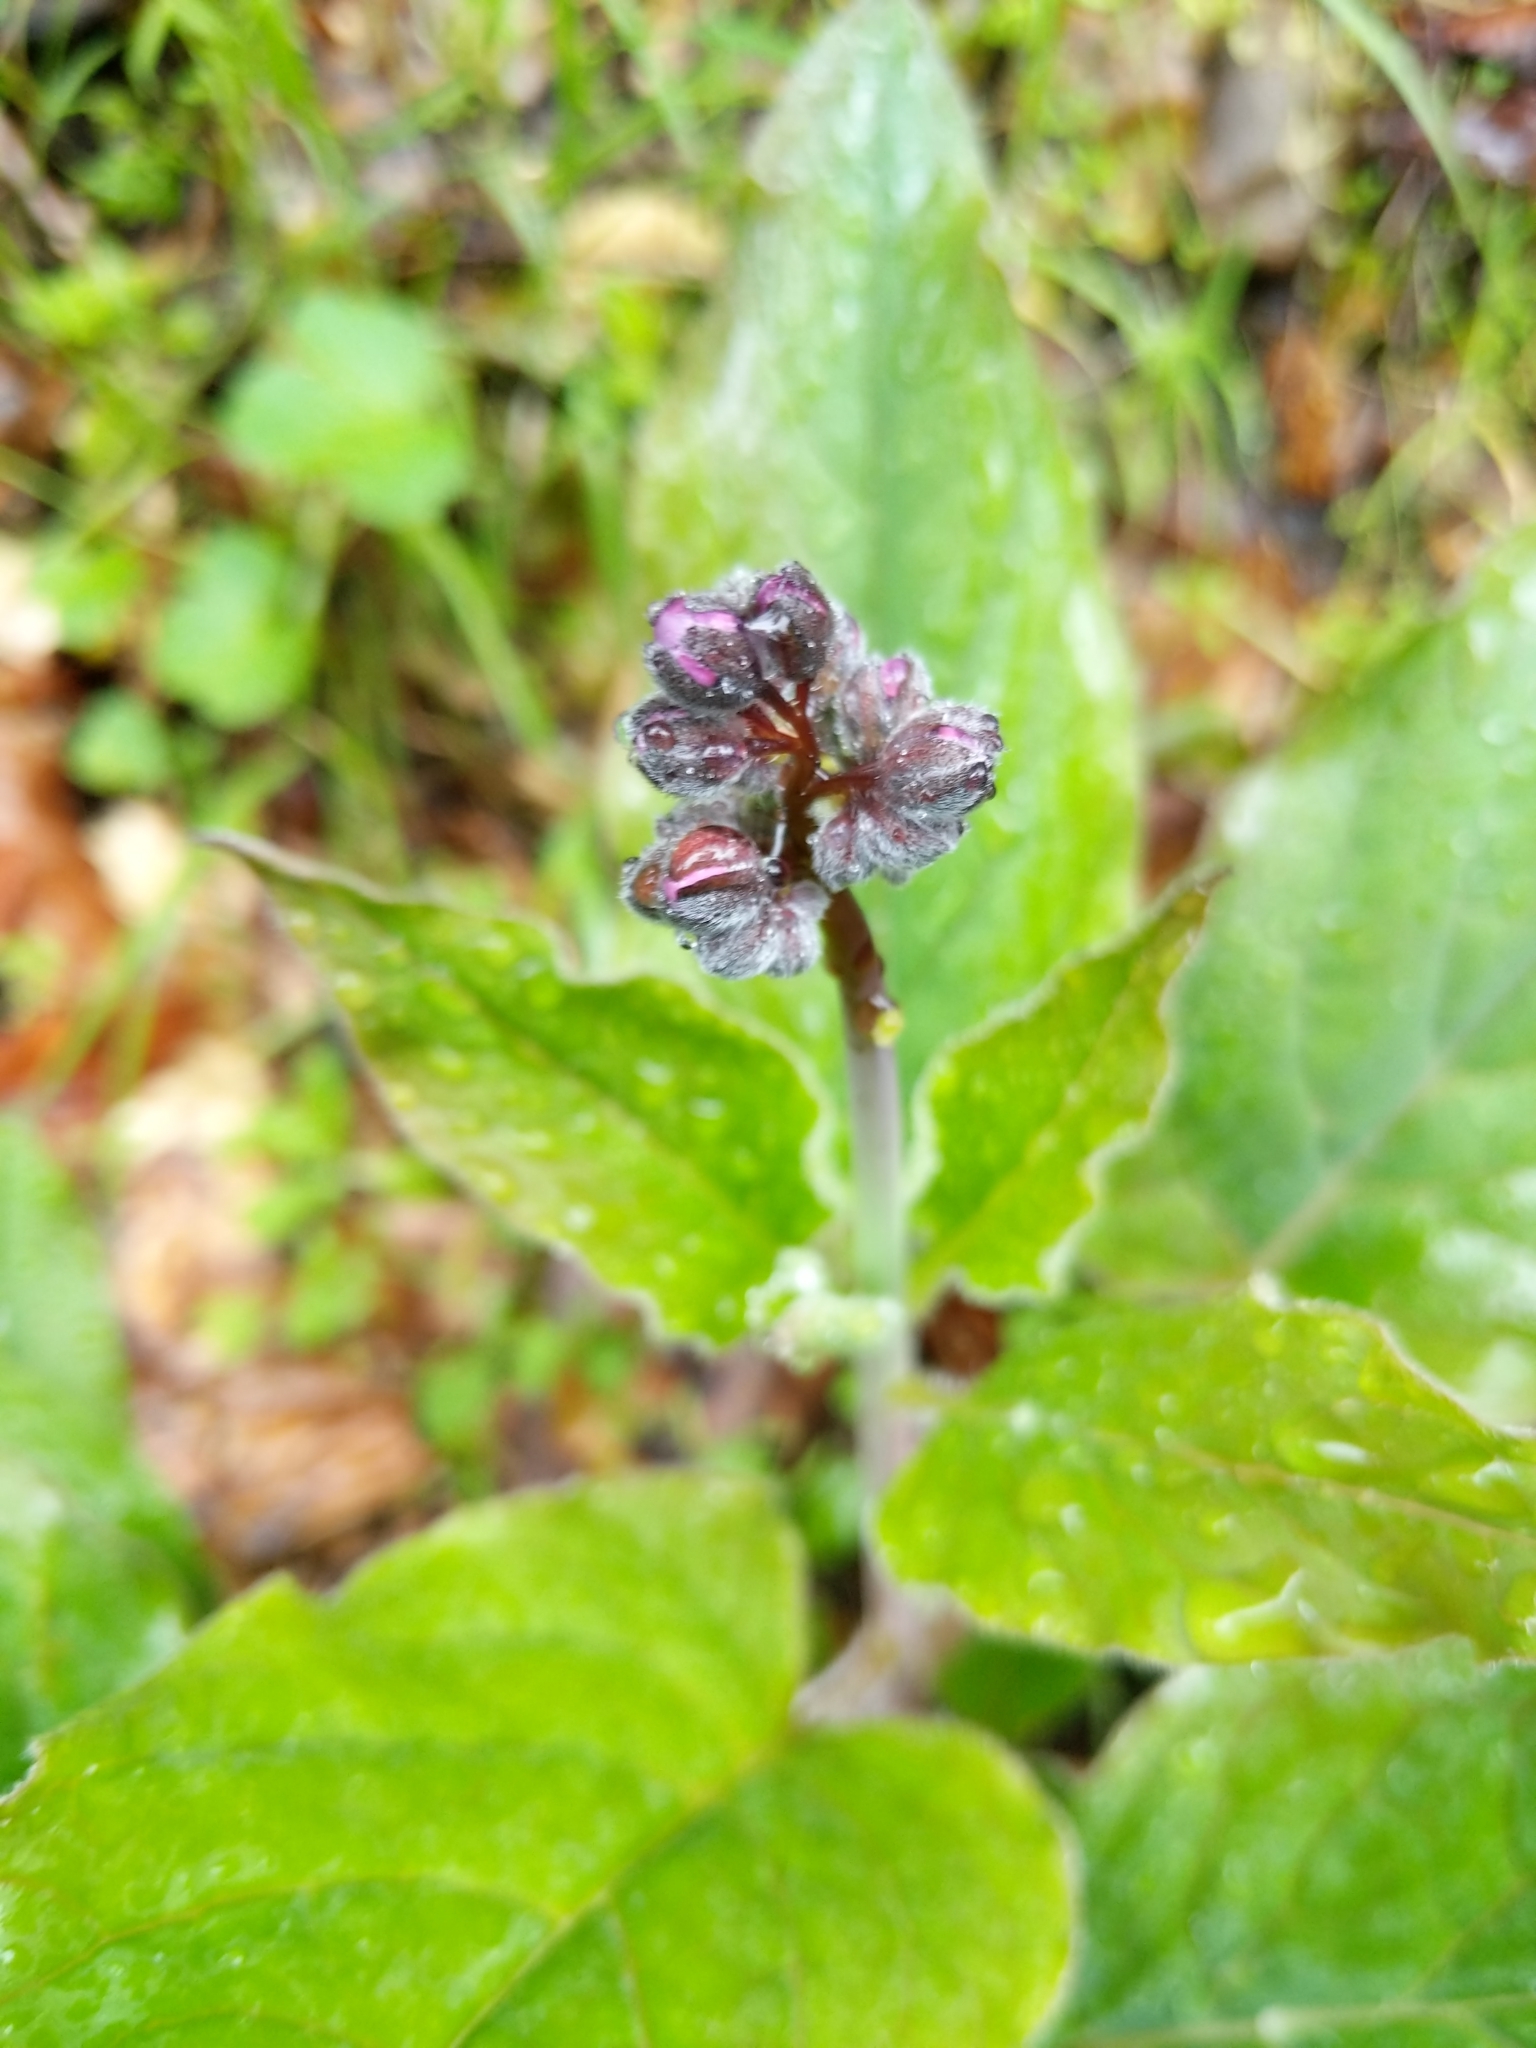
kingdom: Plantae
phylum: Tracheophyta
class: Magnoliopsida
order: Boraginales
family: Boraginaceae
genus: Adelinia
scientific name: Adelinia grande
